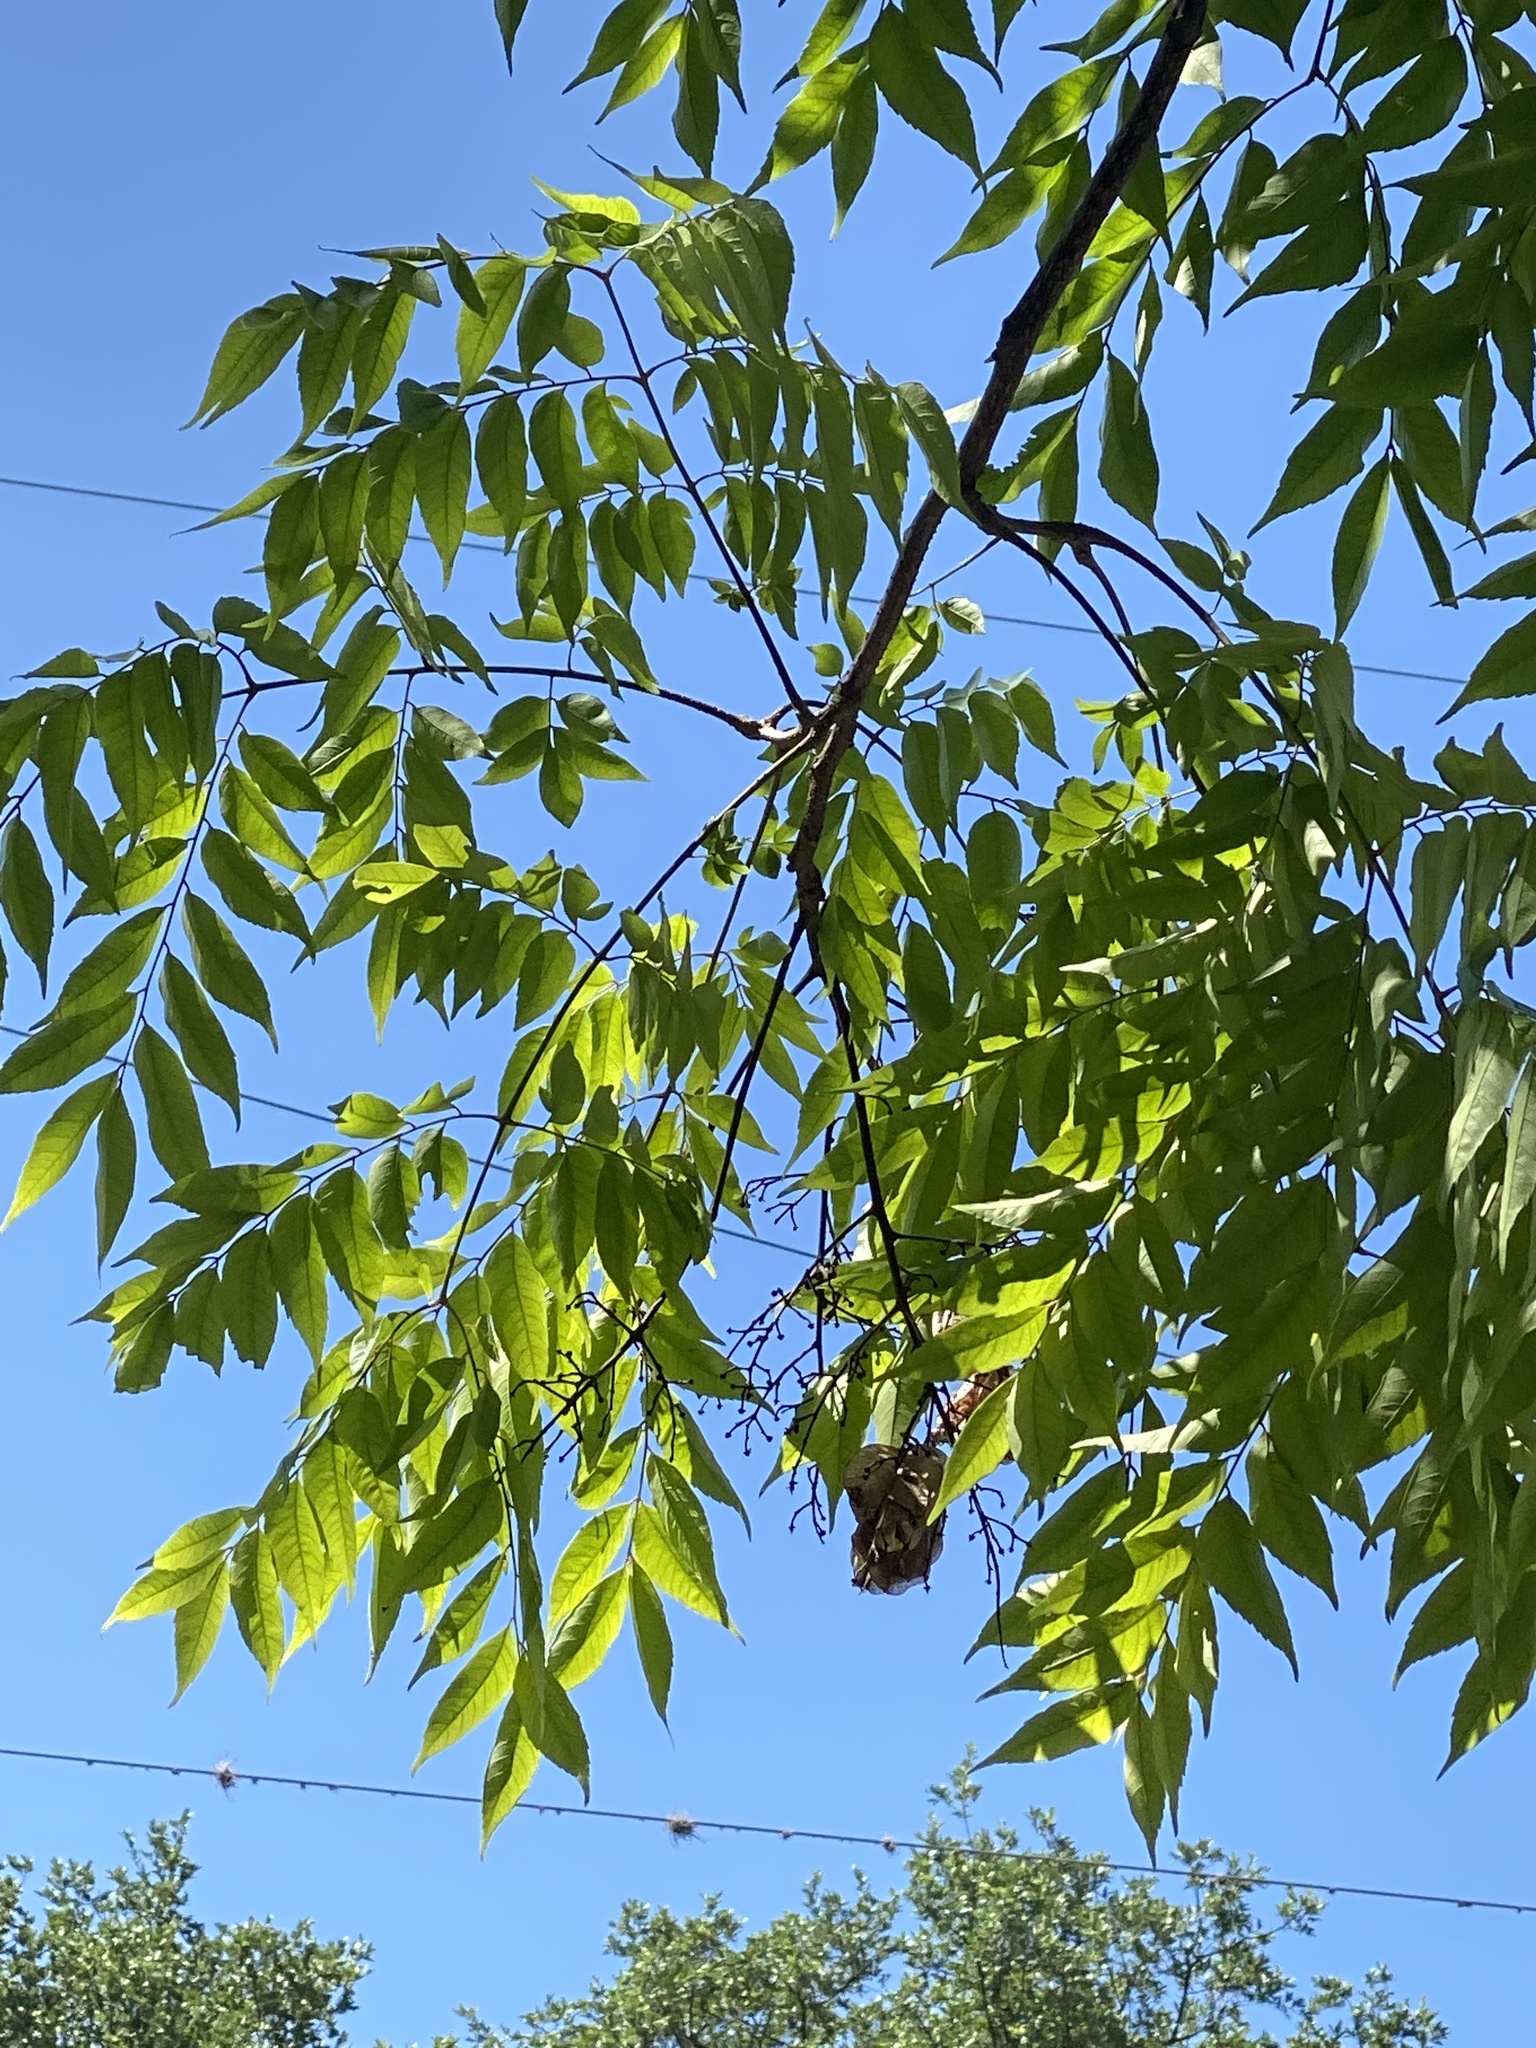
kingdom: Plantae
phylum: Tracheophyta
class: Magnoliopsida
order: Sapindales
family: Anacardiaceae
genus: Pistacia
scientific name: Pistacia chinensis
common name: Chinese pistache
